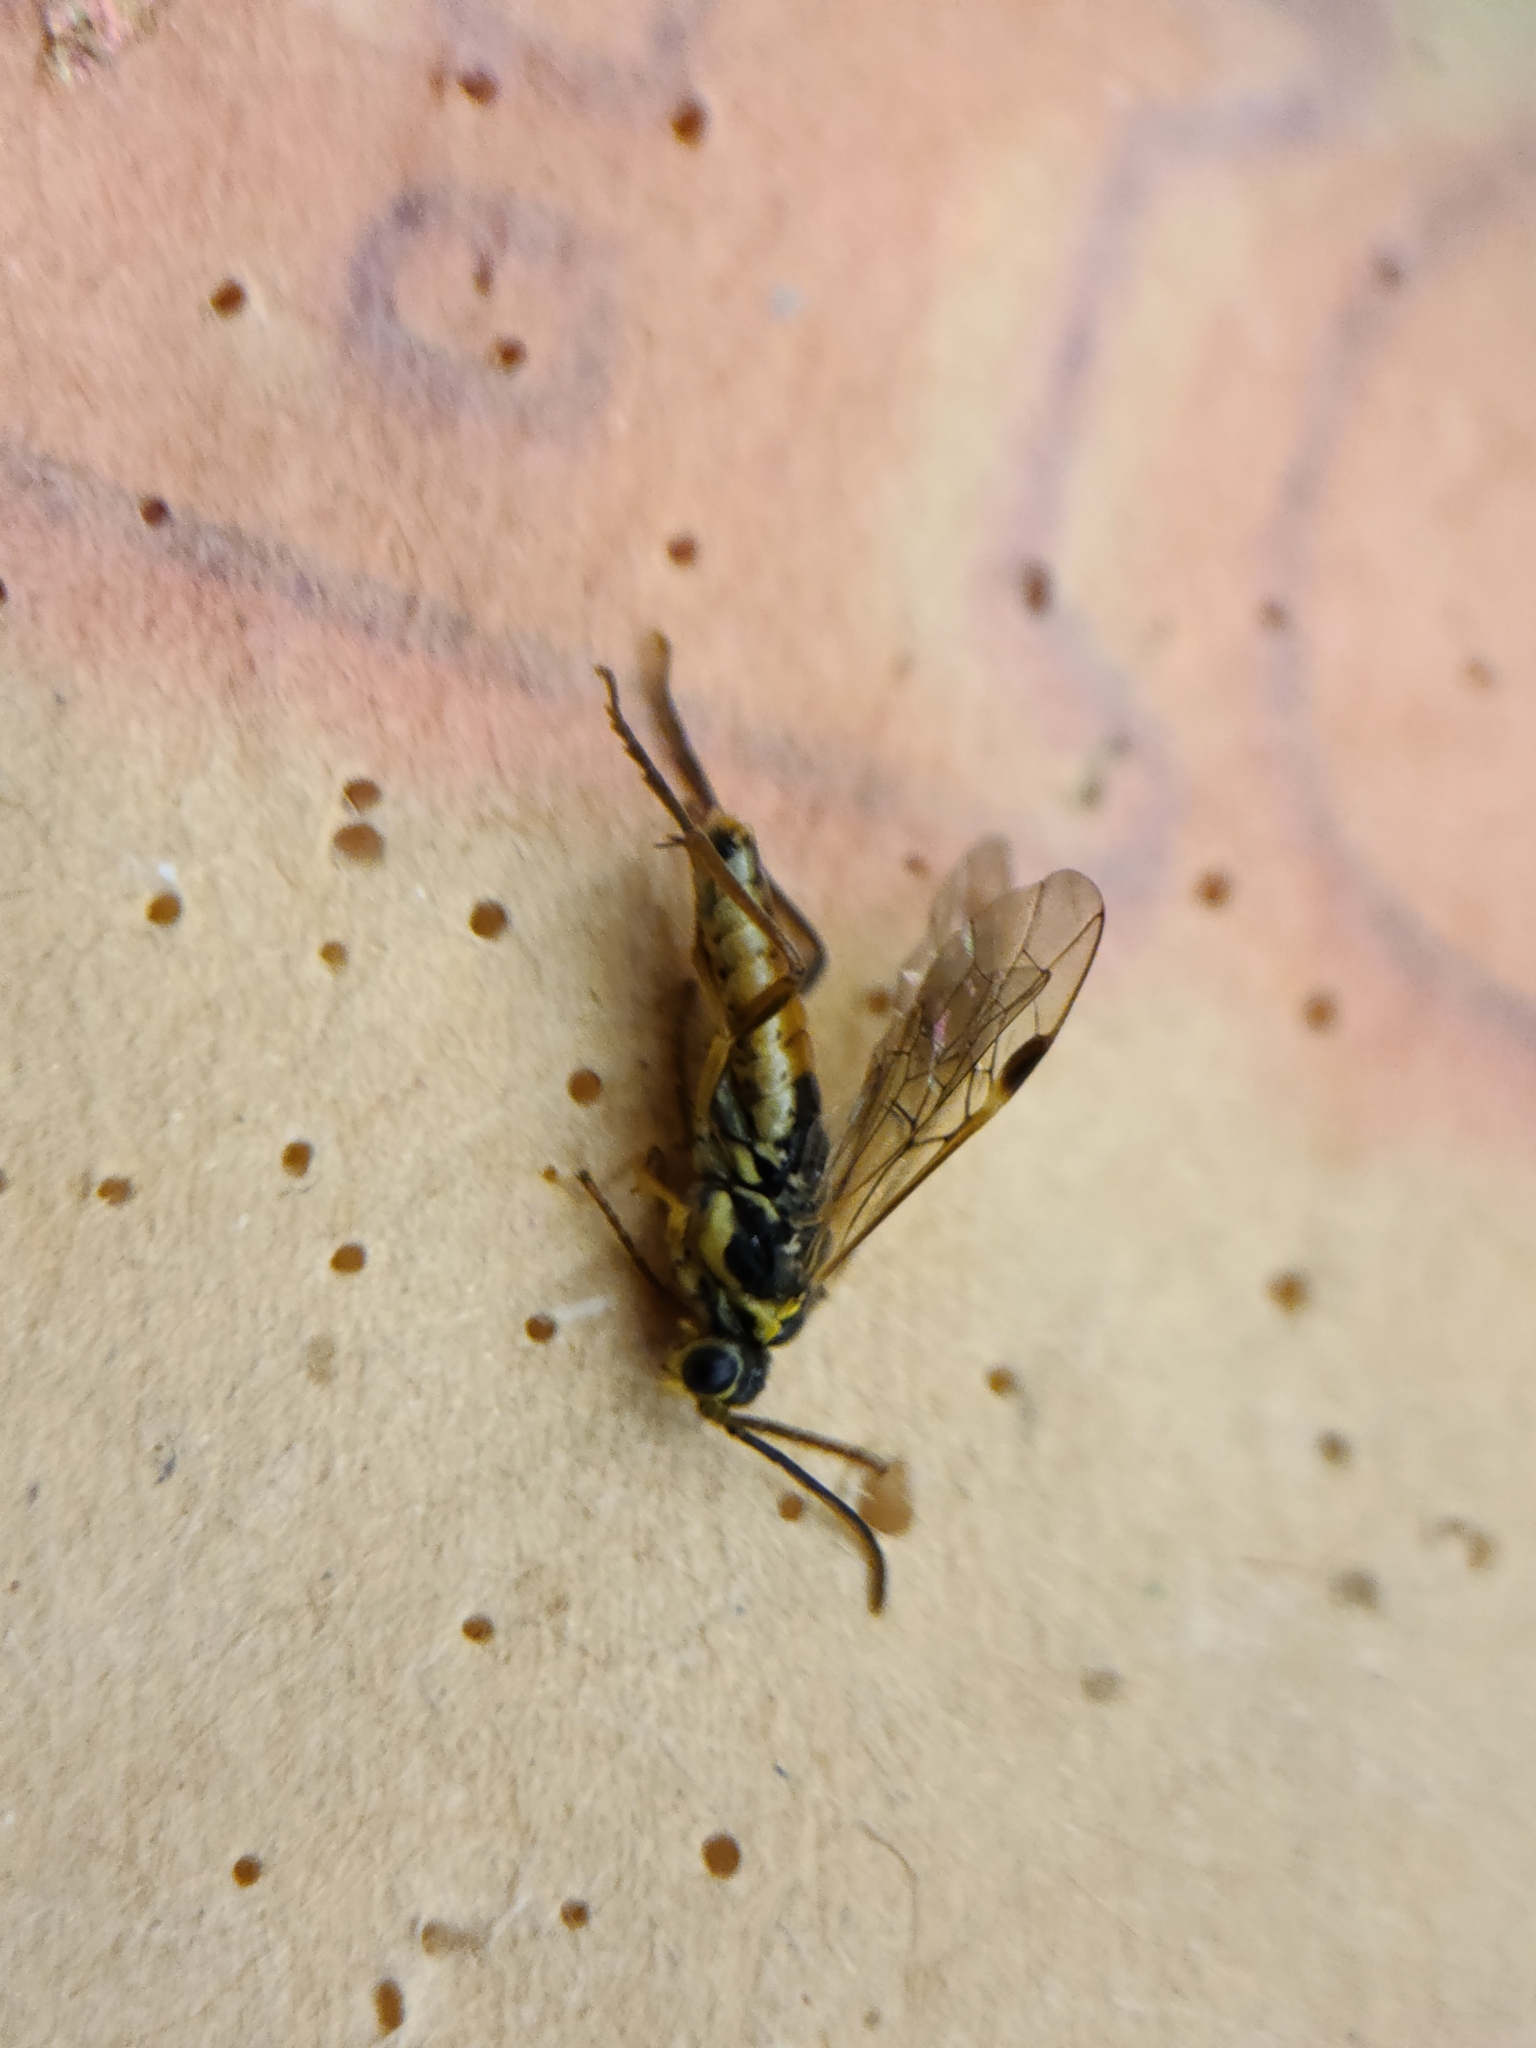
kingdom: Animalia
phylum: Arthropoda
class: Insecta
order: Hymenoptera
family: Tenthredinidae
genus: Aglaostigma
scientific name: Aglaostigma fulvipes
